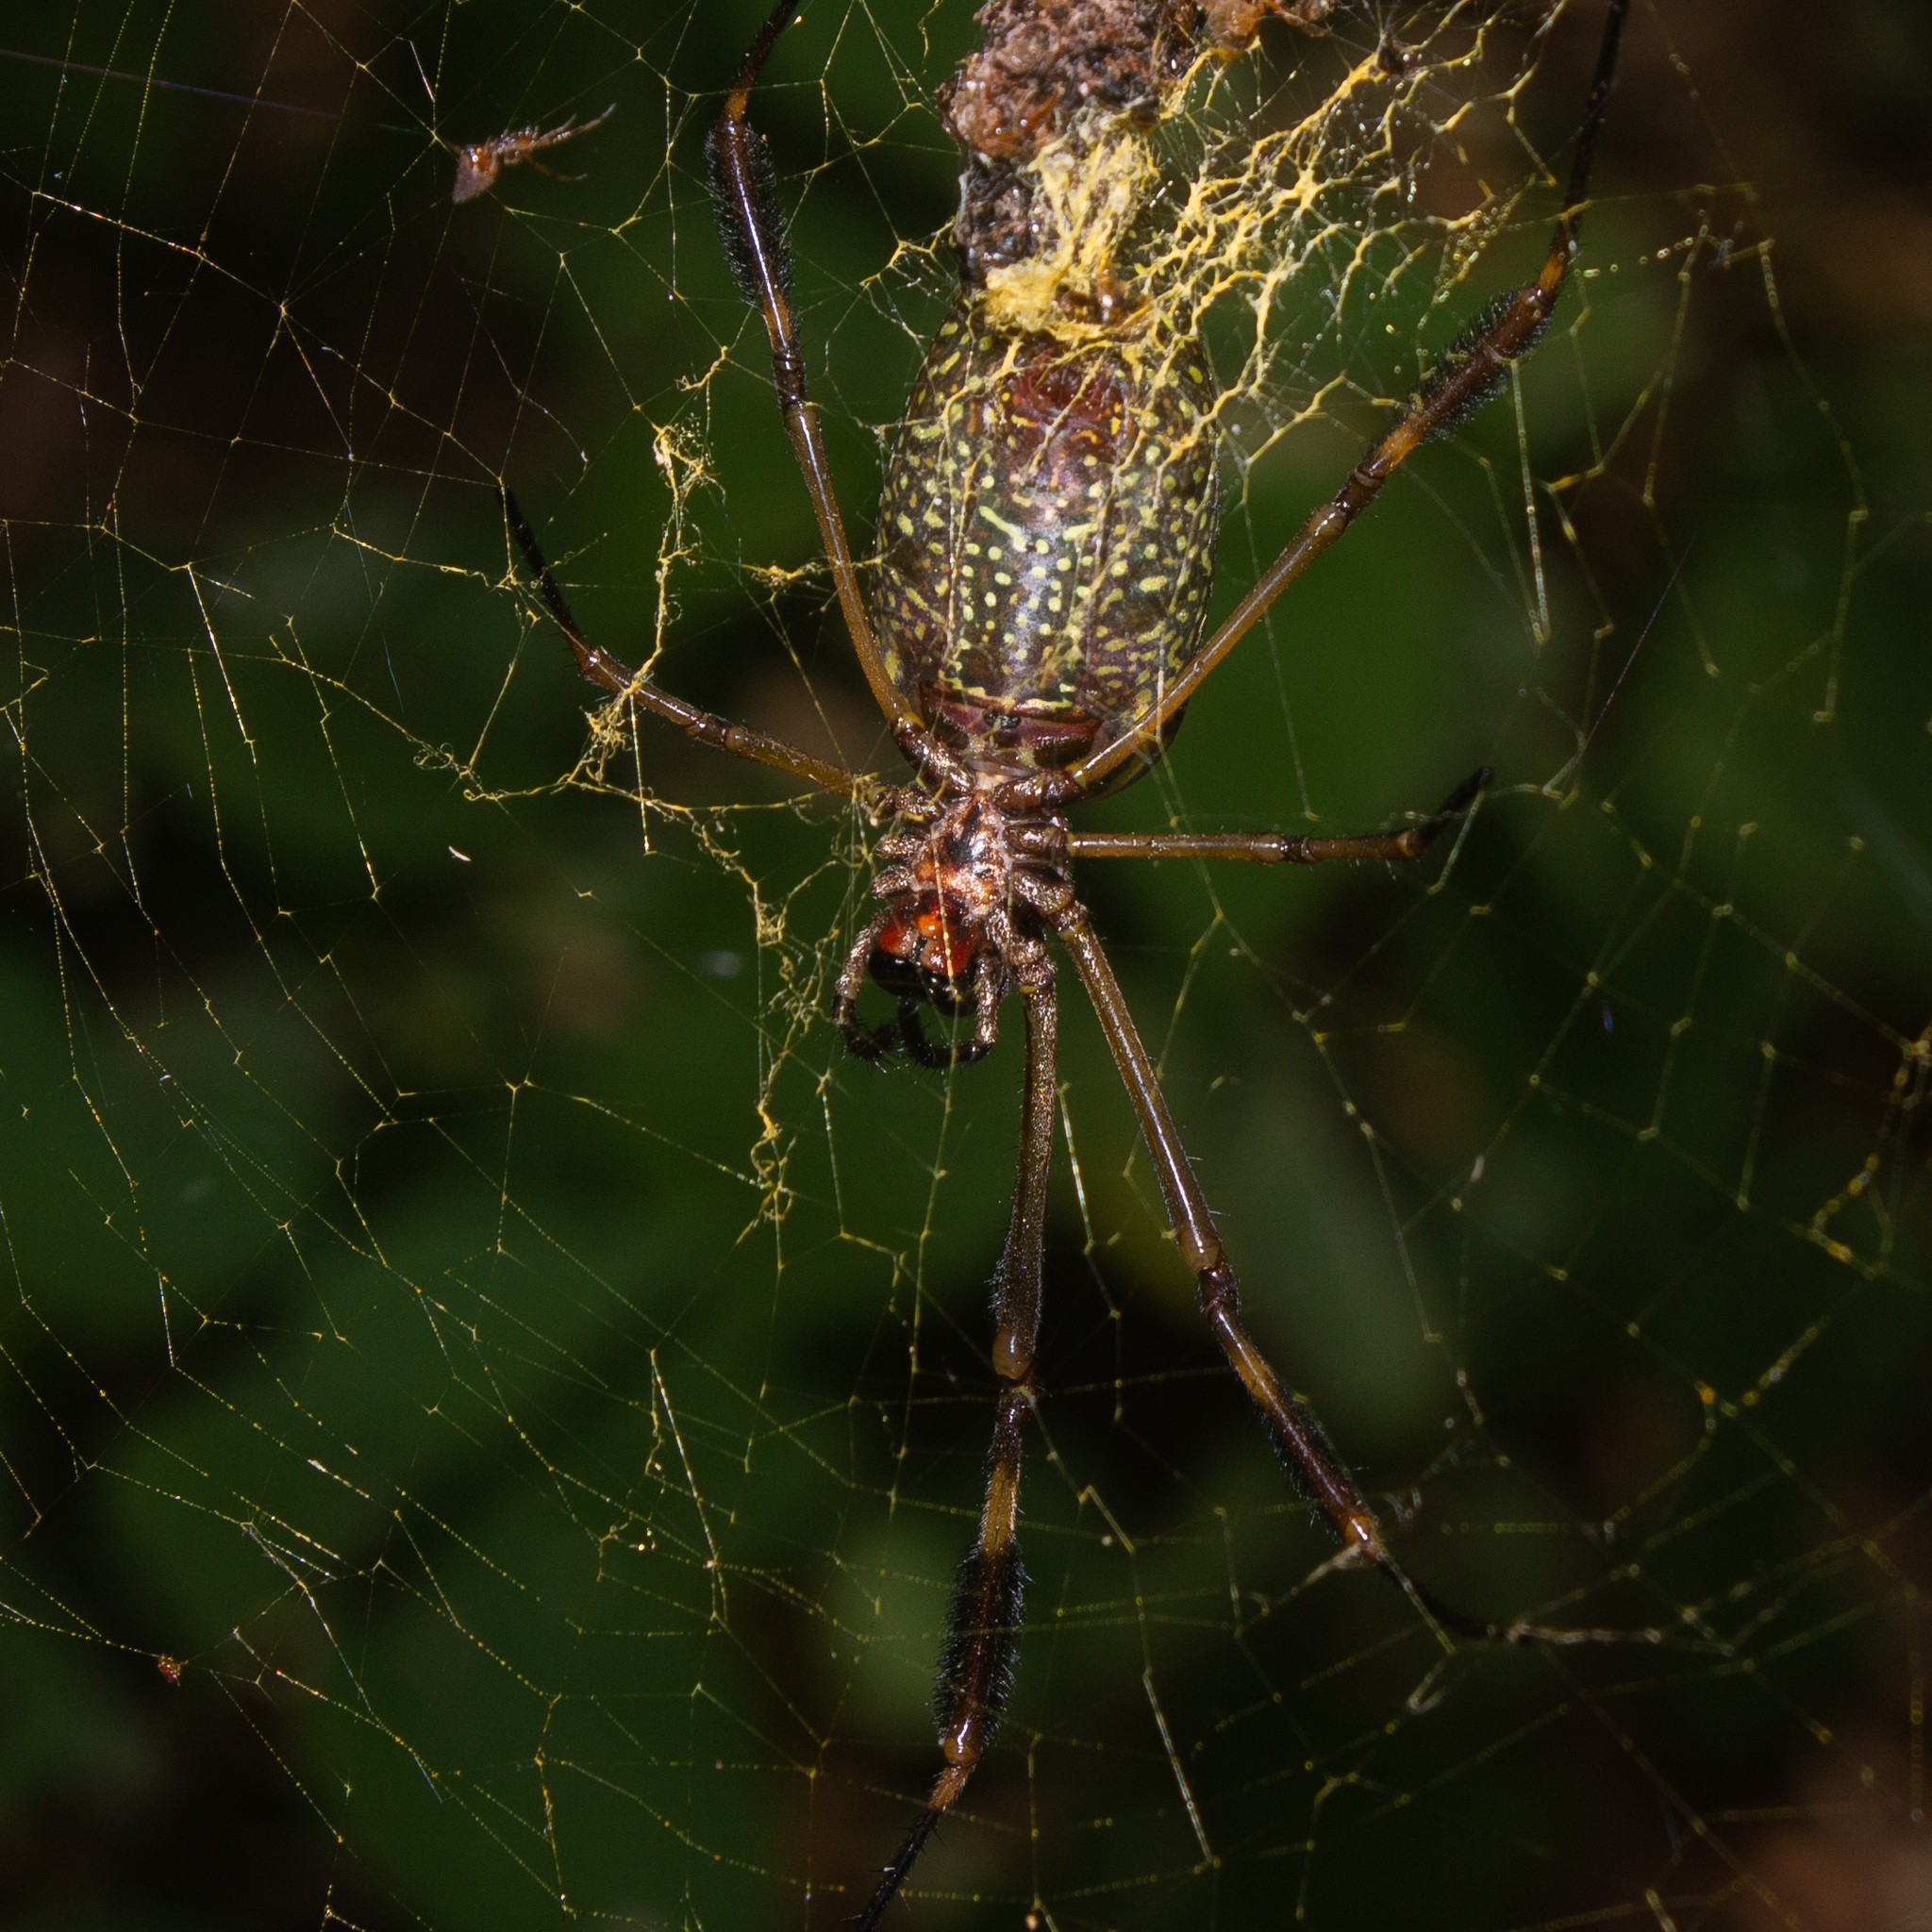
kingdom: Animalia
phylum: Arthropoda
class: Arachnida
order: Araneae
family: Araneidae
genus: Trichonephila
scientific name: Trichonephila clavipes
